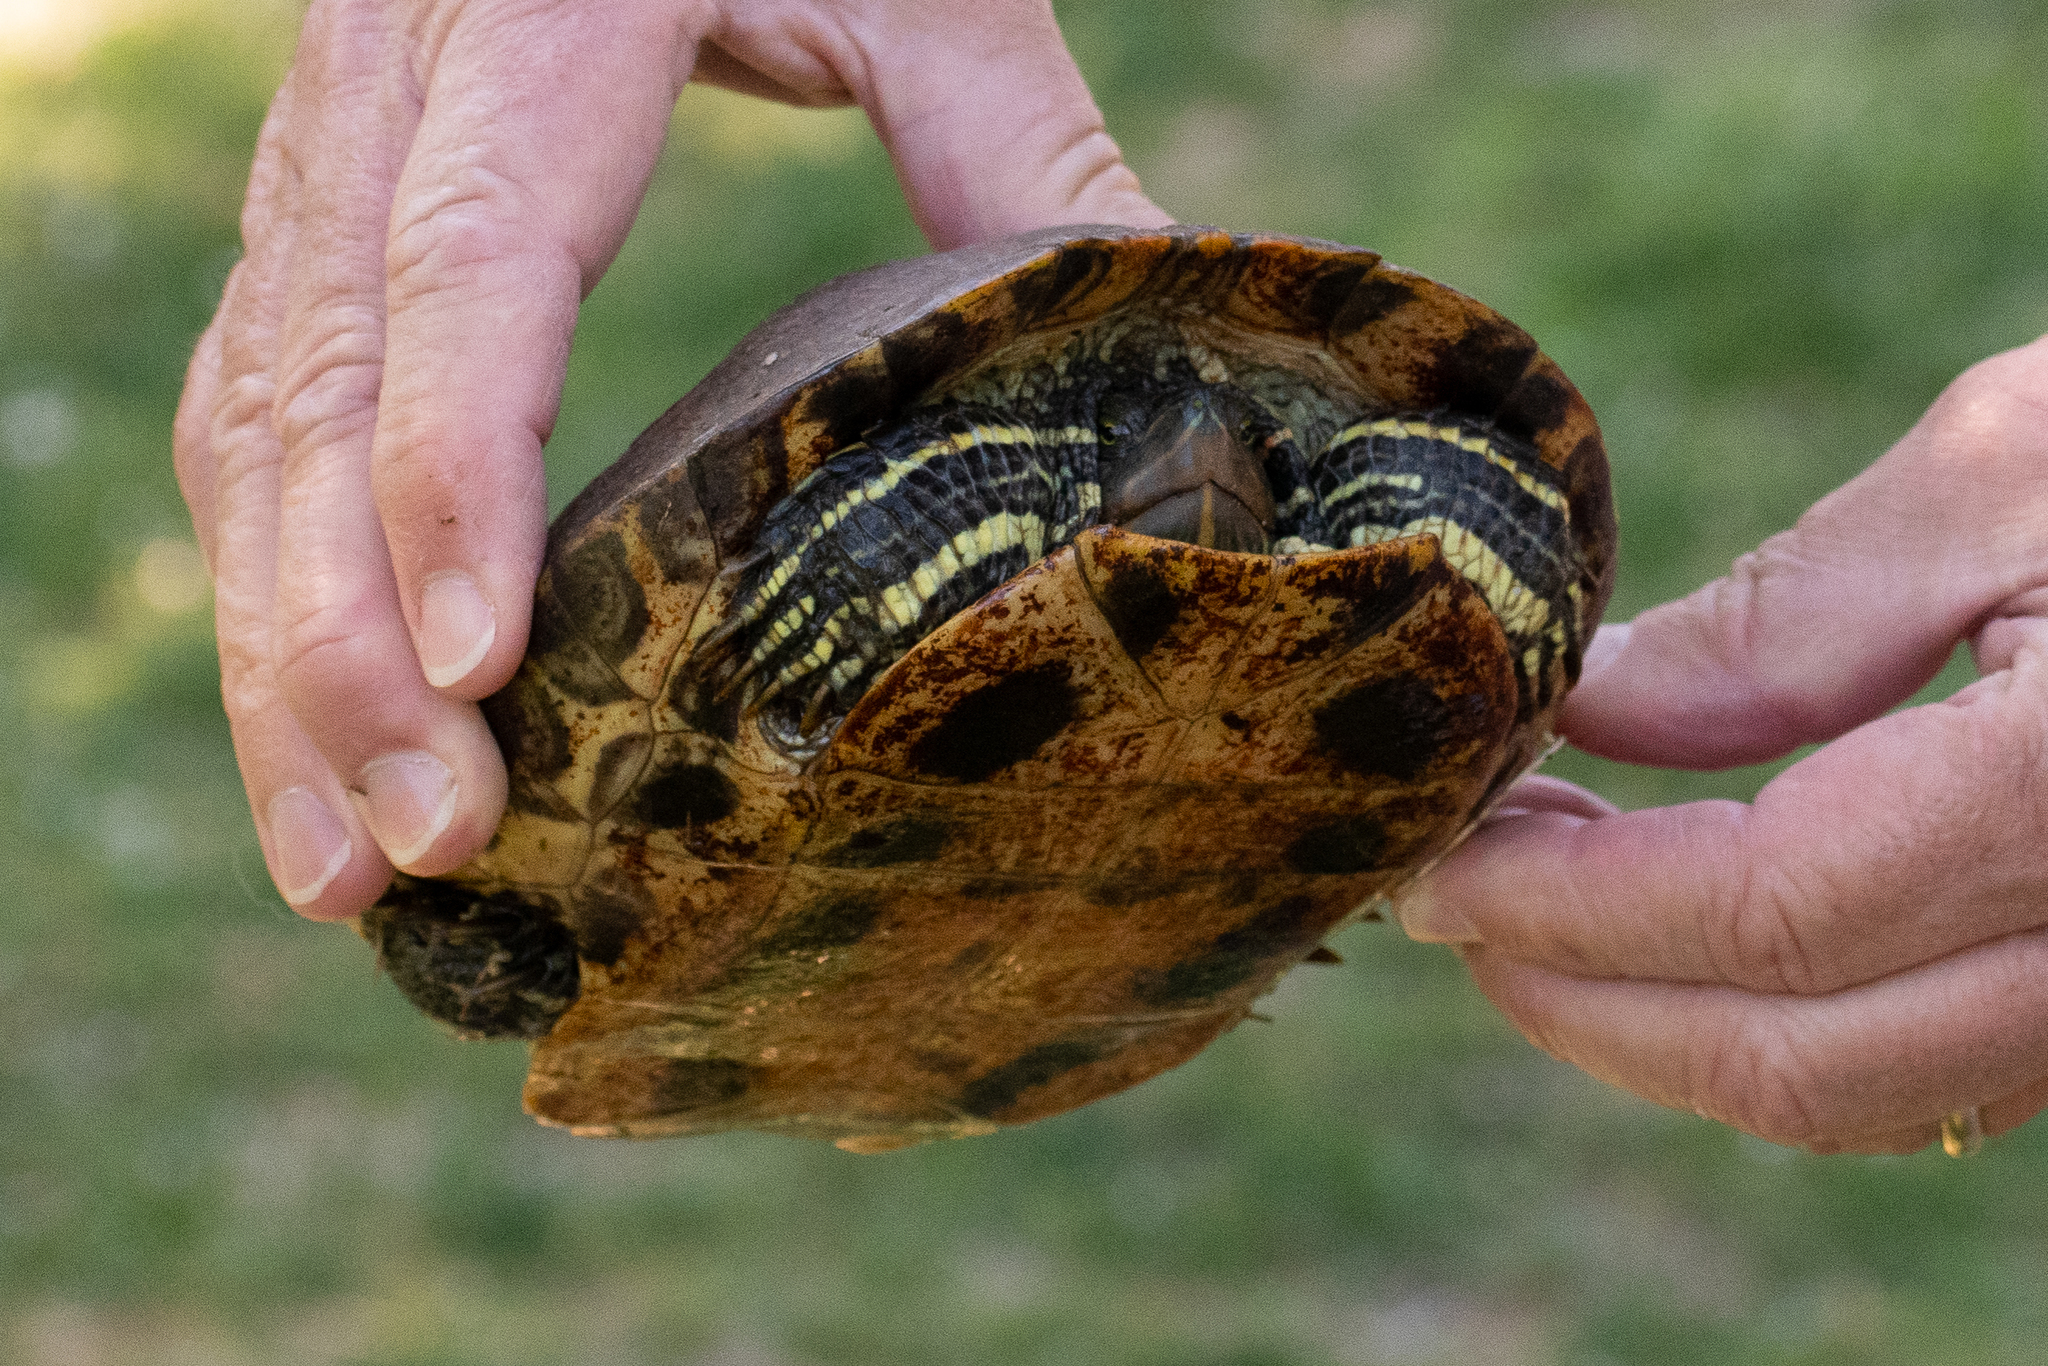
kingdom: Animalia
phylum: Chordata
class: Testudines
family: Emydidae
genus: Trachemys
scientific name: Trachemys scripta
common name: Slider
